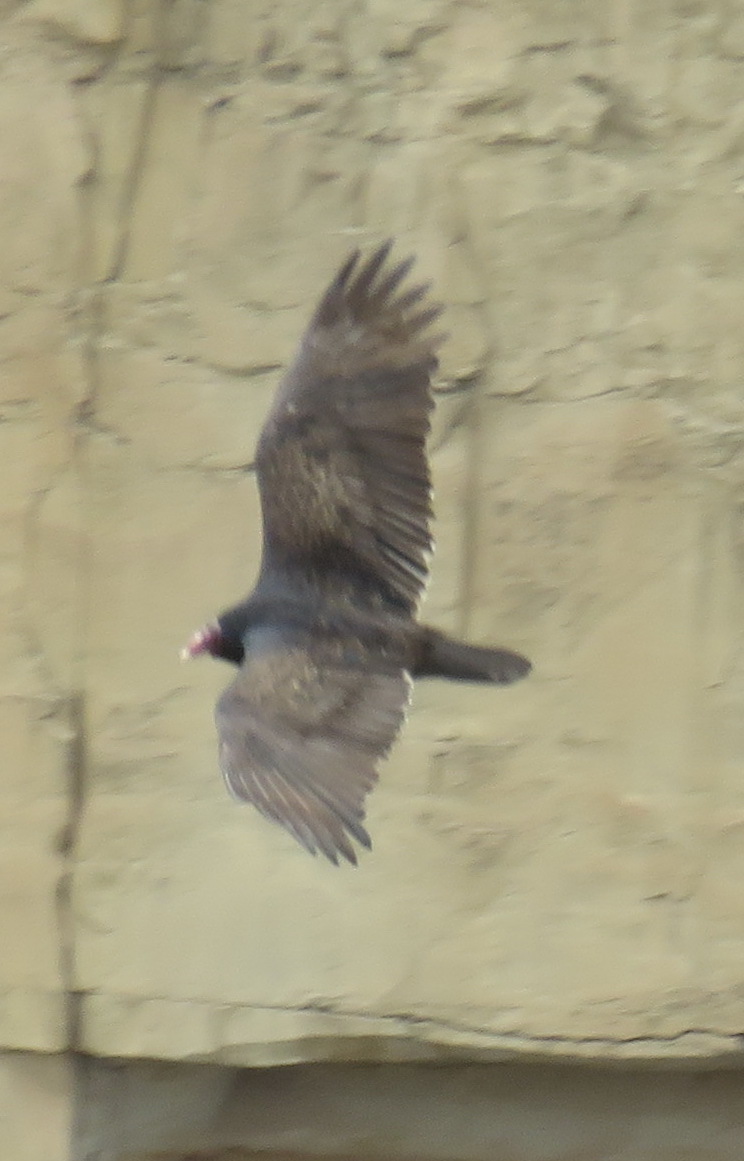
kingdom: Animalia
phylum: Chordata
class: Aves
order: Accipitriformes
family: Cathartidae
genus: Cathartes
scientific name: Cathartes aura
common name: Turkey vulture
